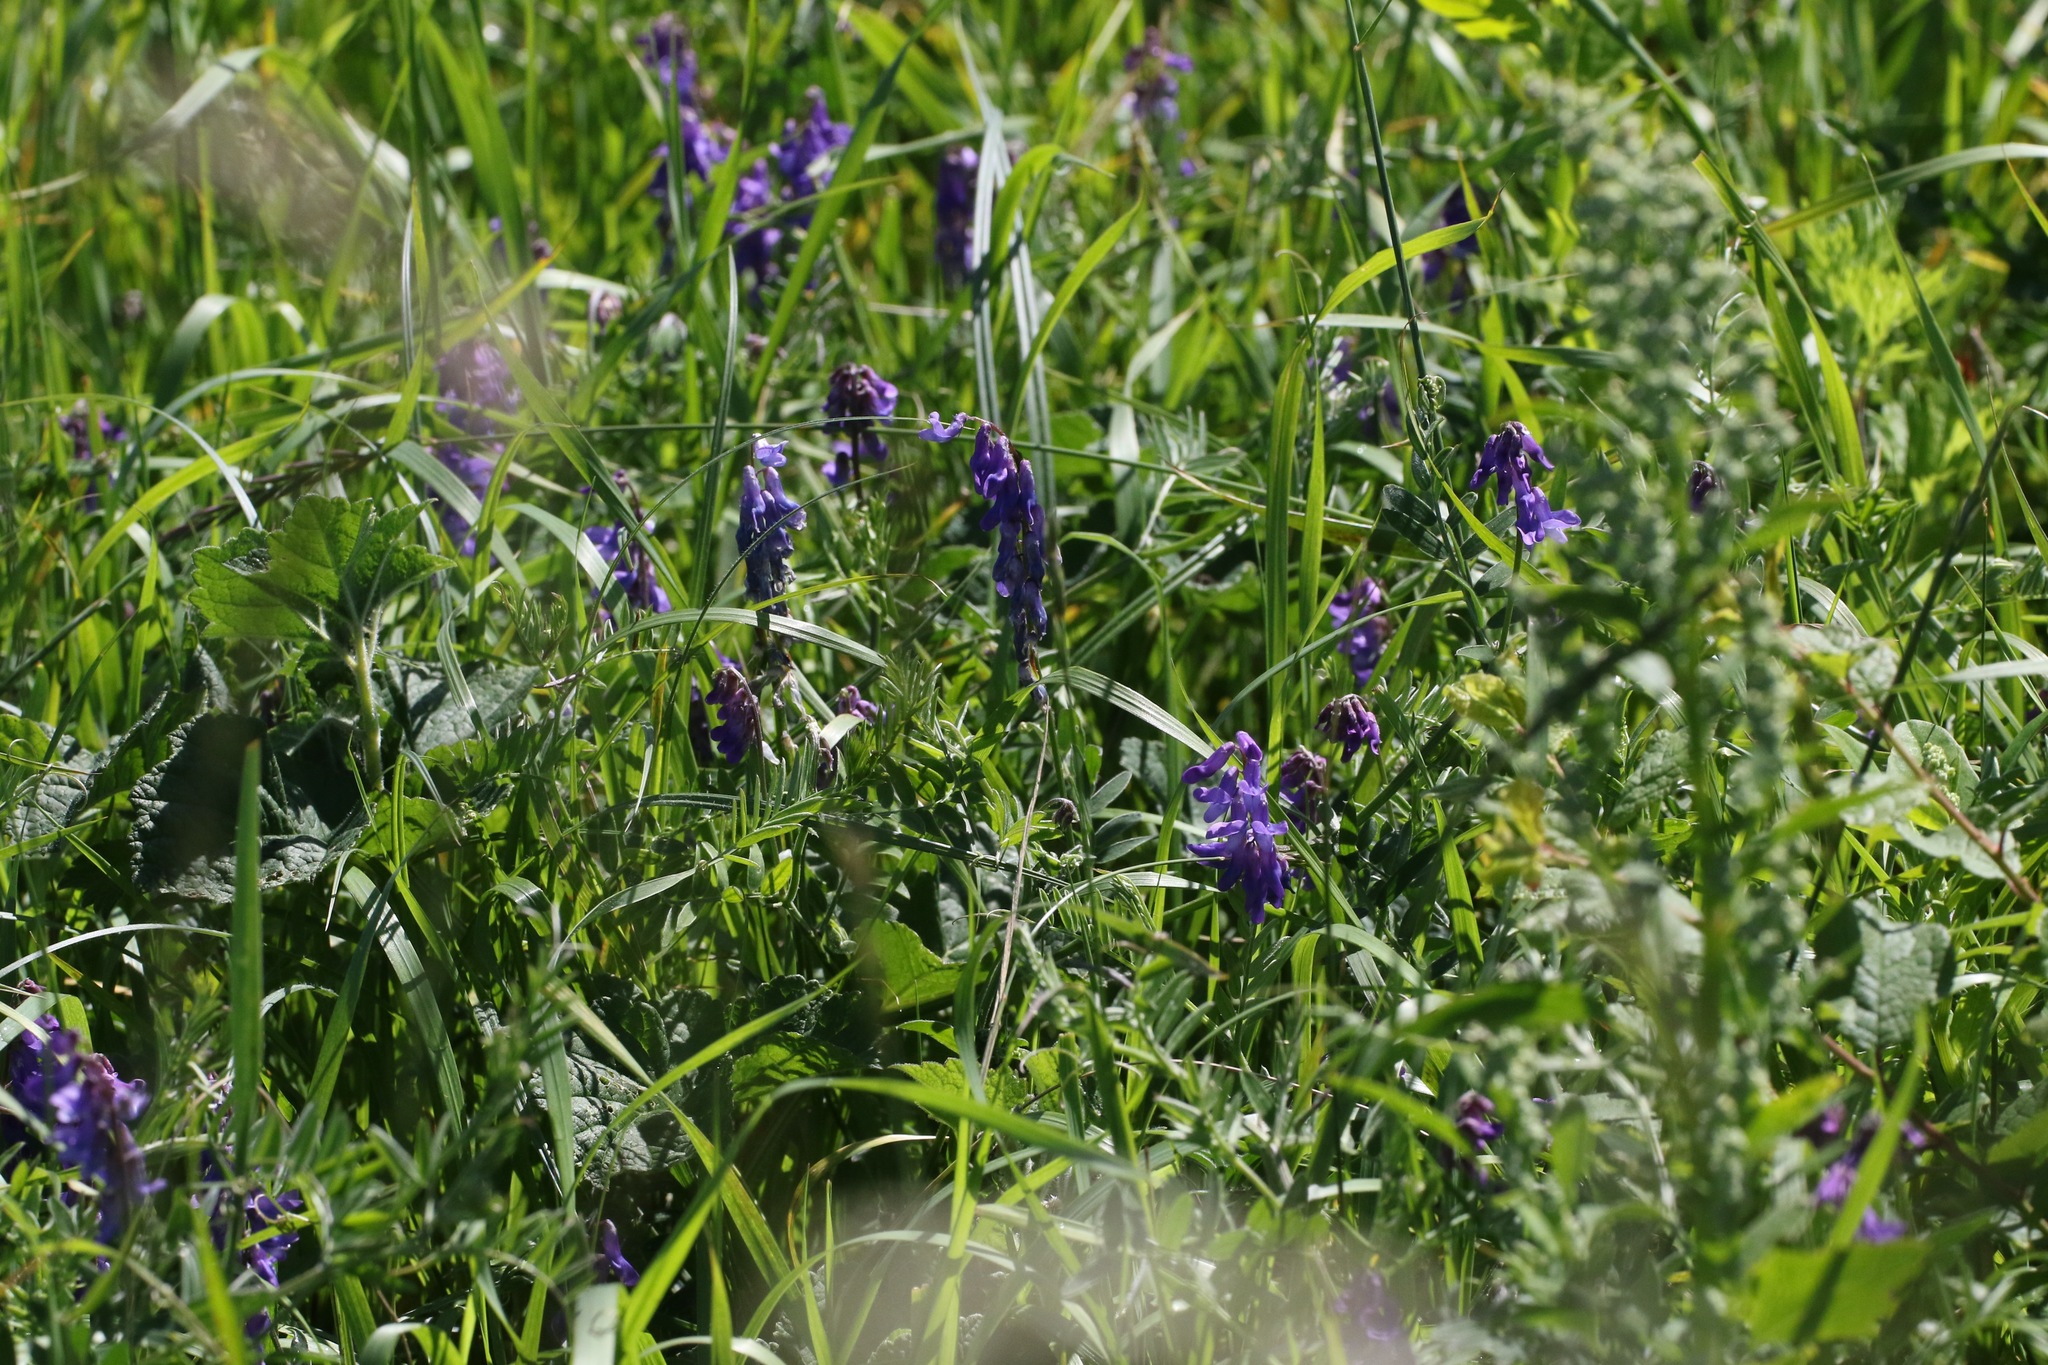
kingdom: Plantae
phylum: Tracheophyta
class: Magnoliopsida
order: Fabales
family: Fabaceae
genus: Vicia
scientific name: Vicia cracca
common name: Bird vetch
